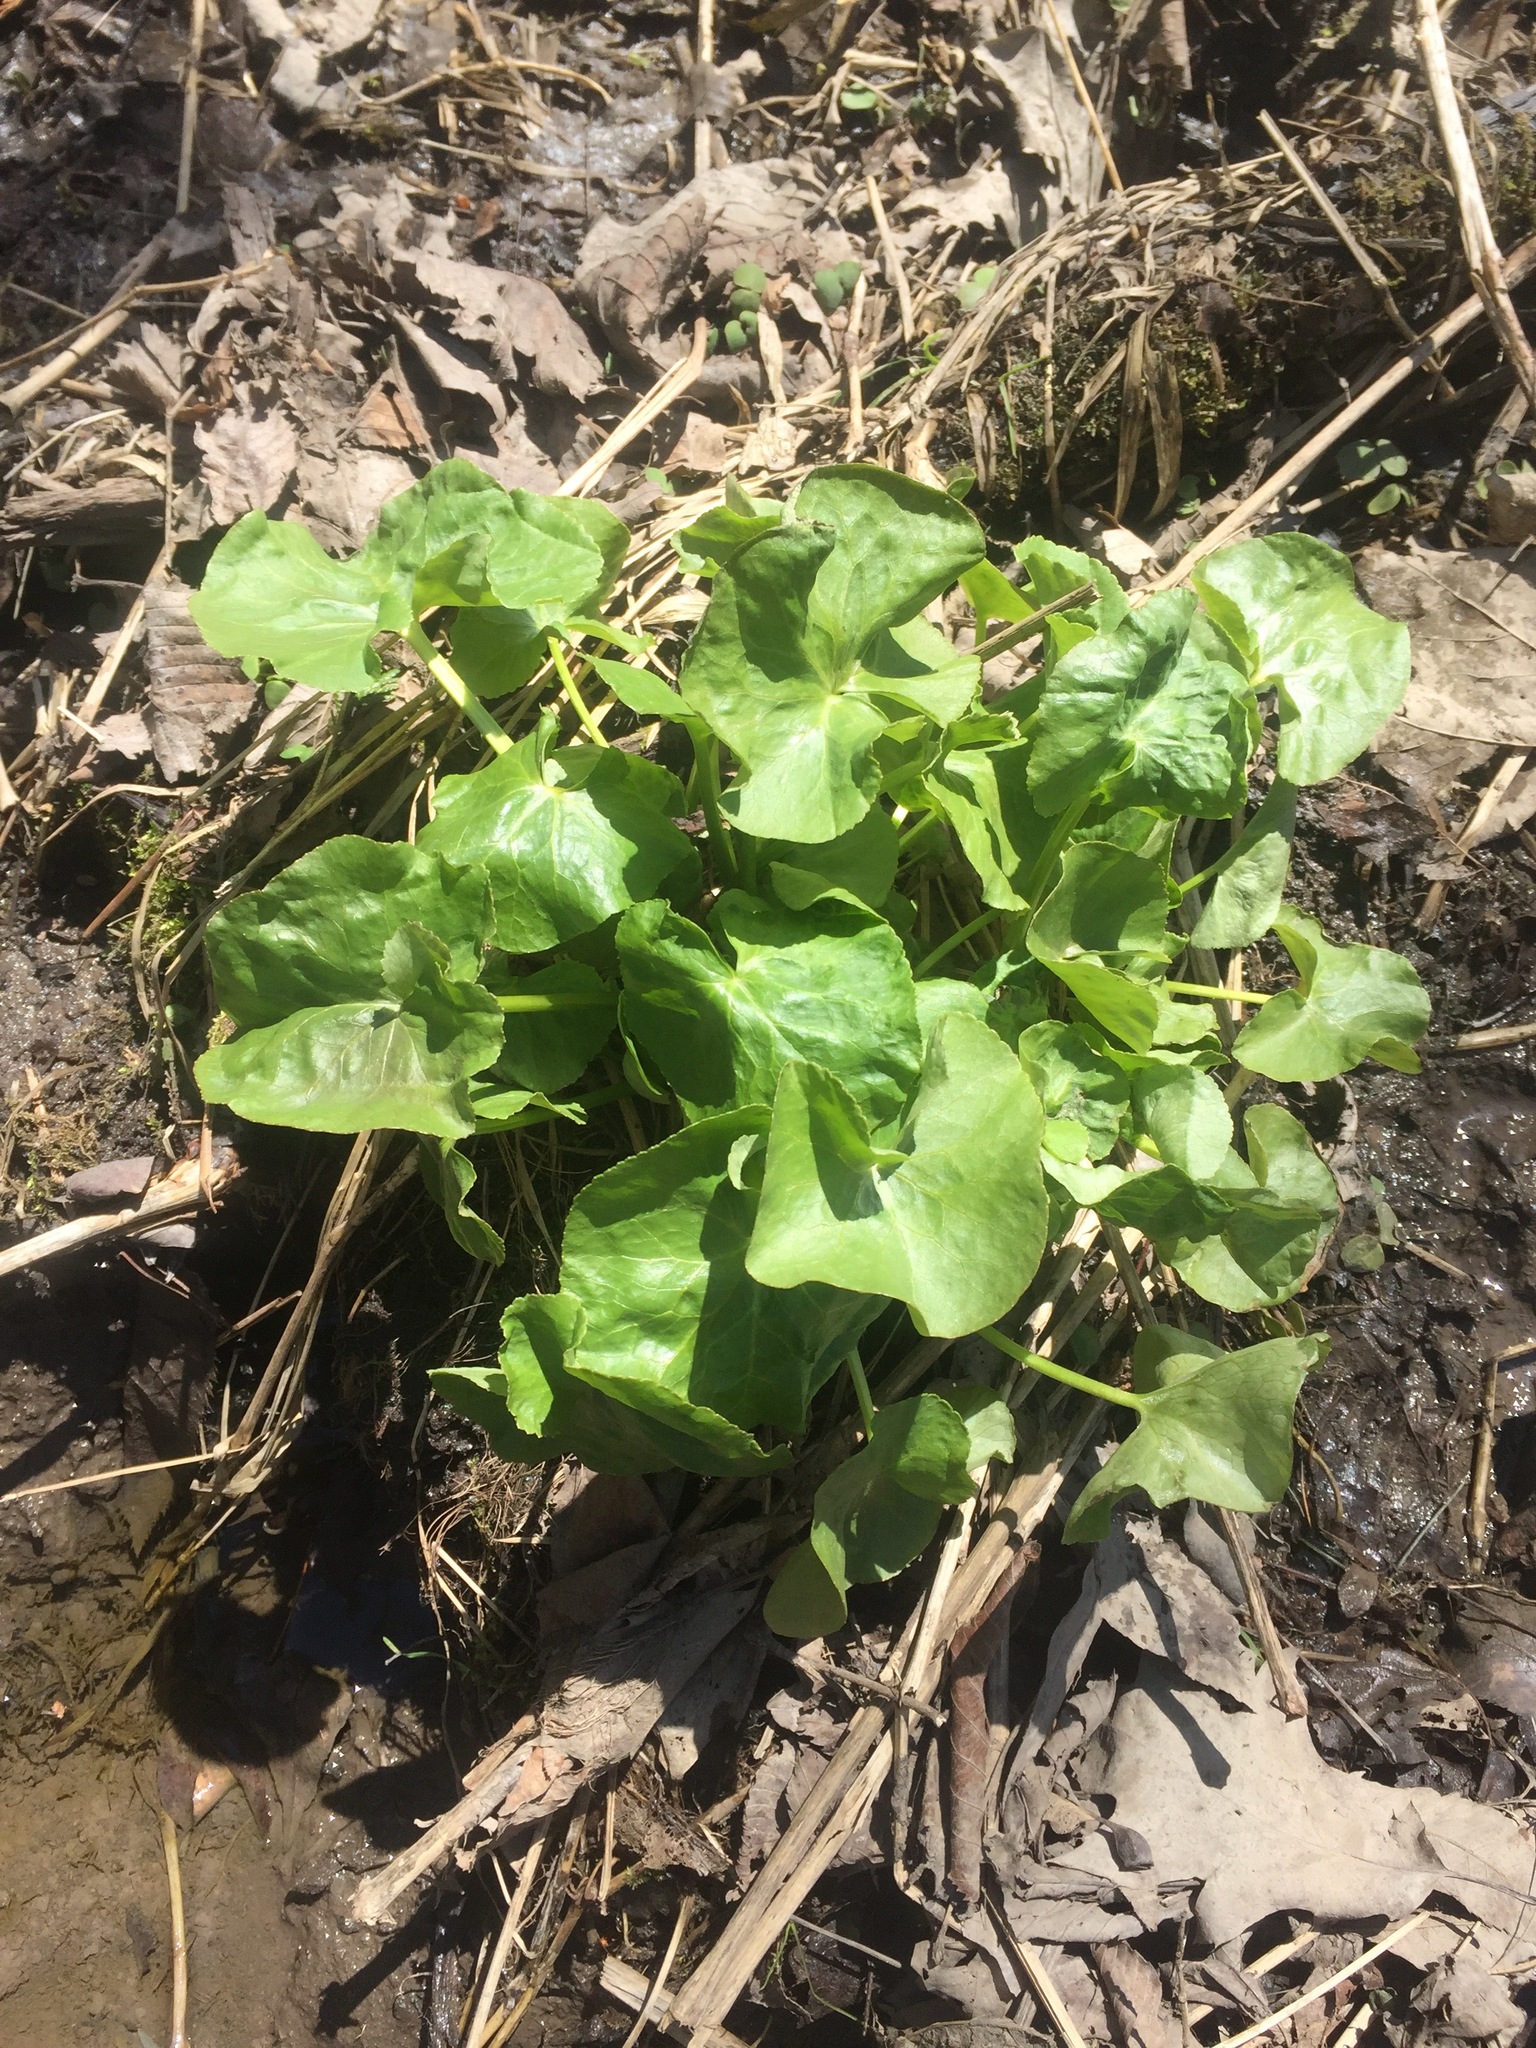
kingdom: Plantae
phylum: Tracheophyta
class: Magnoliopsida
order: Ranunculales
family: Ranunculaceae
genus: Caltha
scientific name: Caltha palustris
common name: Marsh marigold
